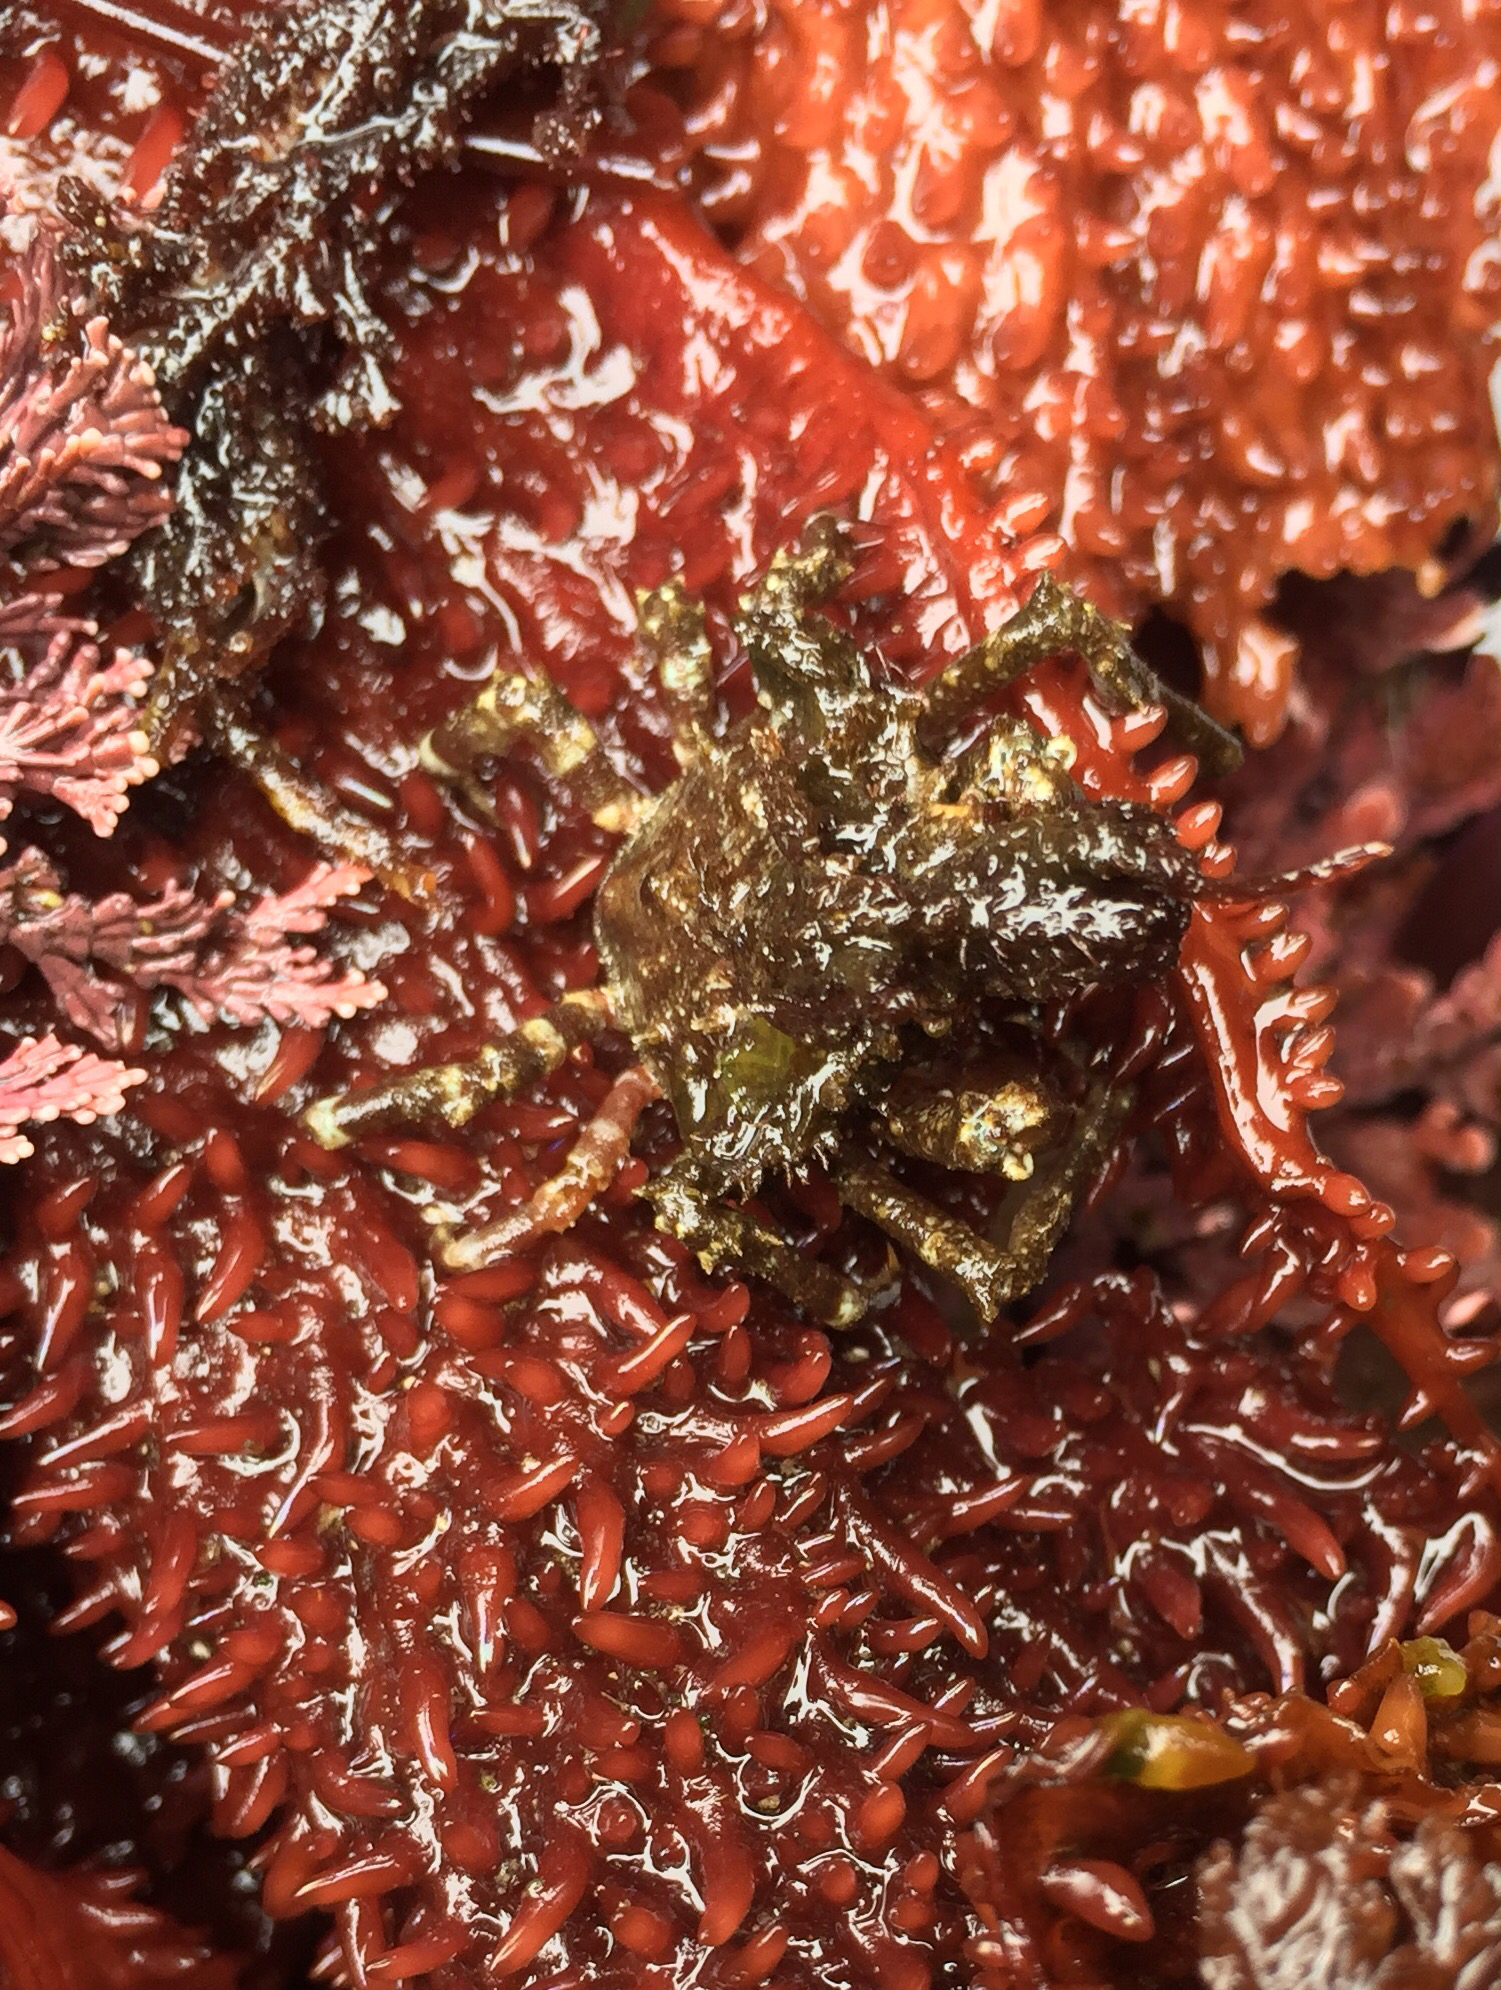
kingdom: Animalia
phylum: Arthropoda
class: Malacostraca
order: Decapoda
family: Epialtidae
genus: Pugettia
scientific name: Pugettia richii
